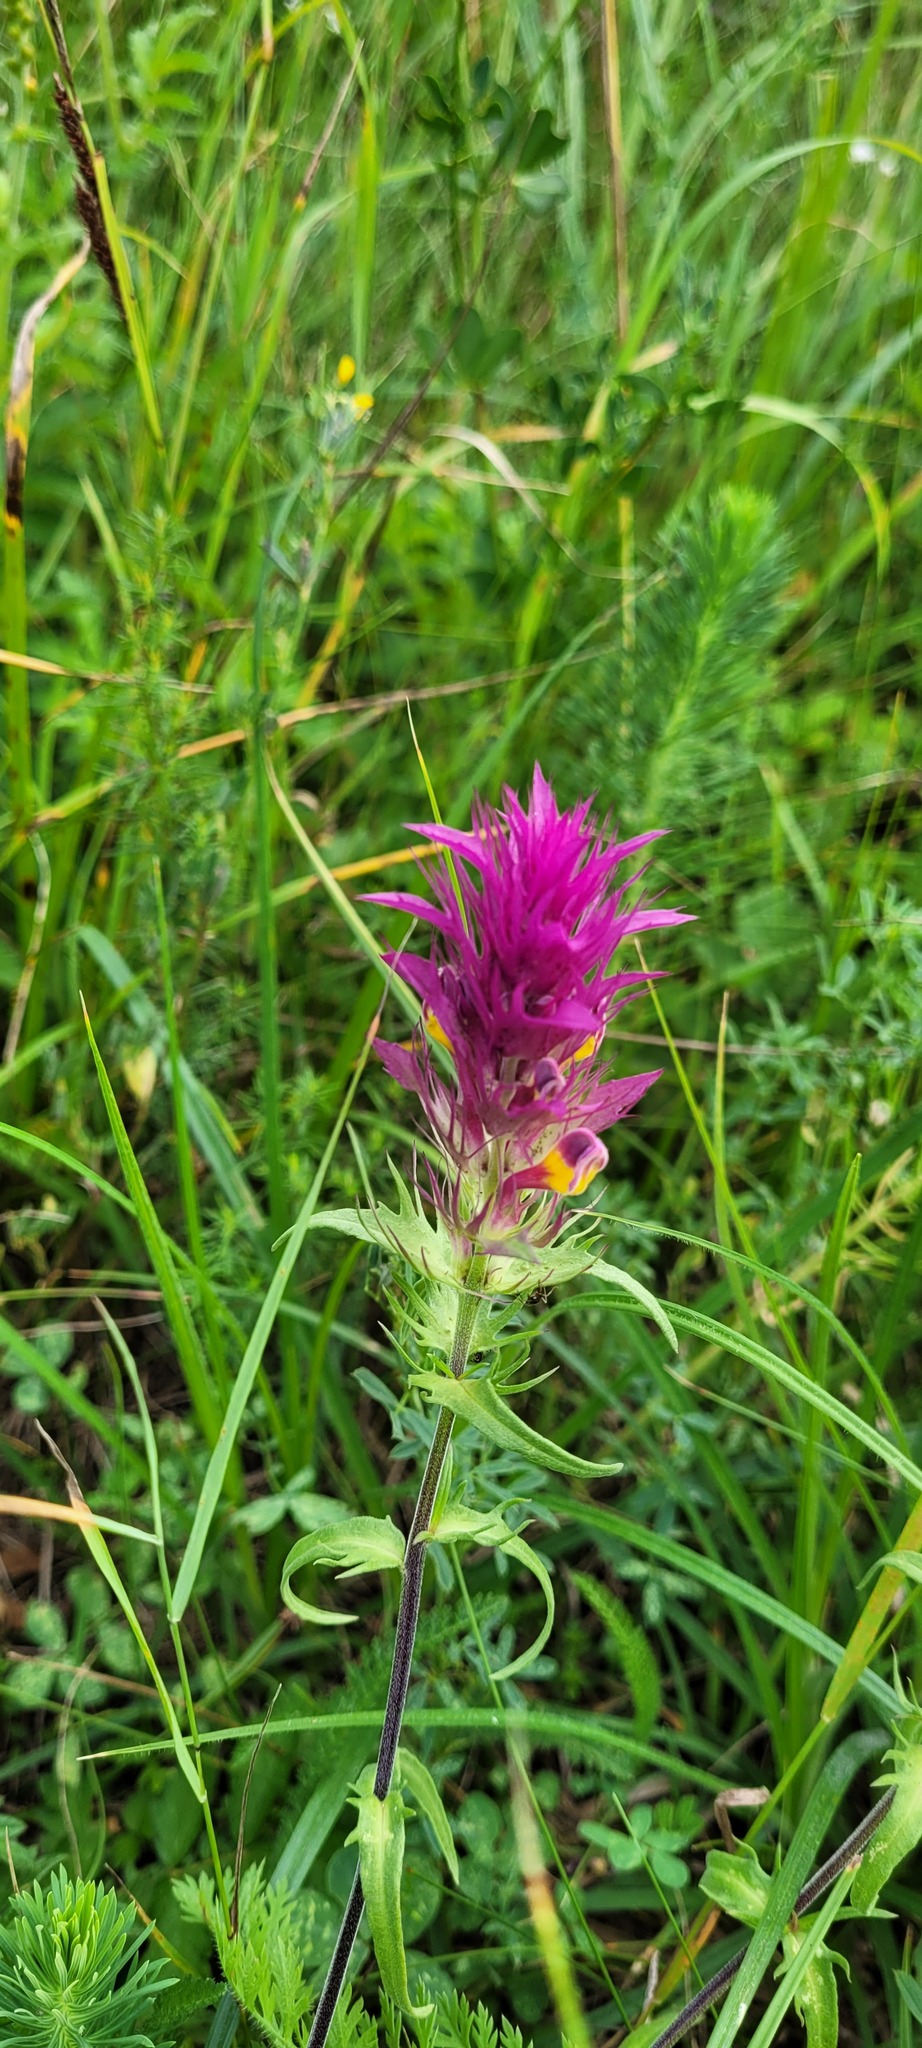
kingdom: Plantae
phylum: Tracheophyta
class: Magnoliopsida
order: Lamiales
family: Orobanchaceae
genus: Melampyrum
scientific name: Melampyrum arvense
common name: Field cow-wheat
